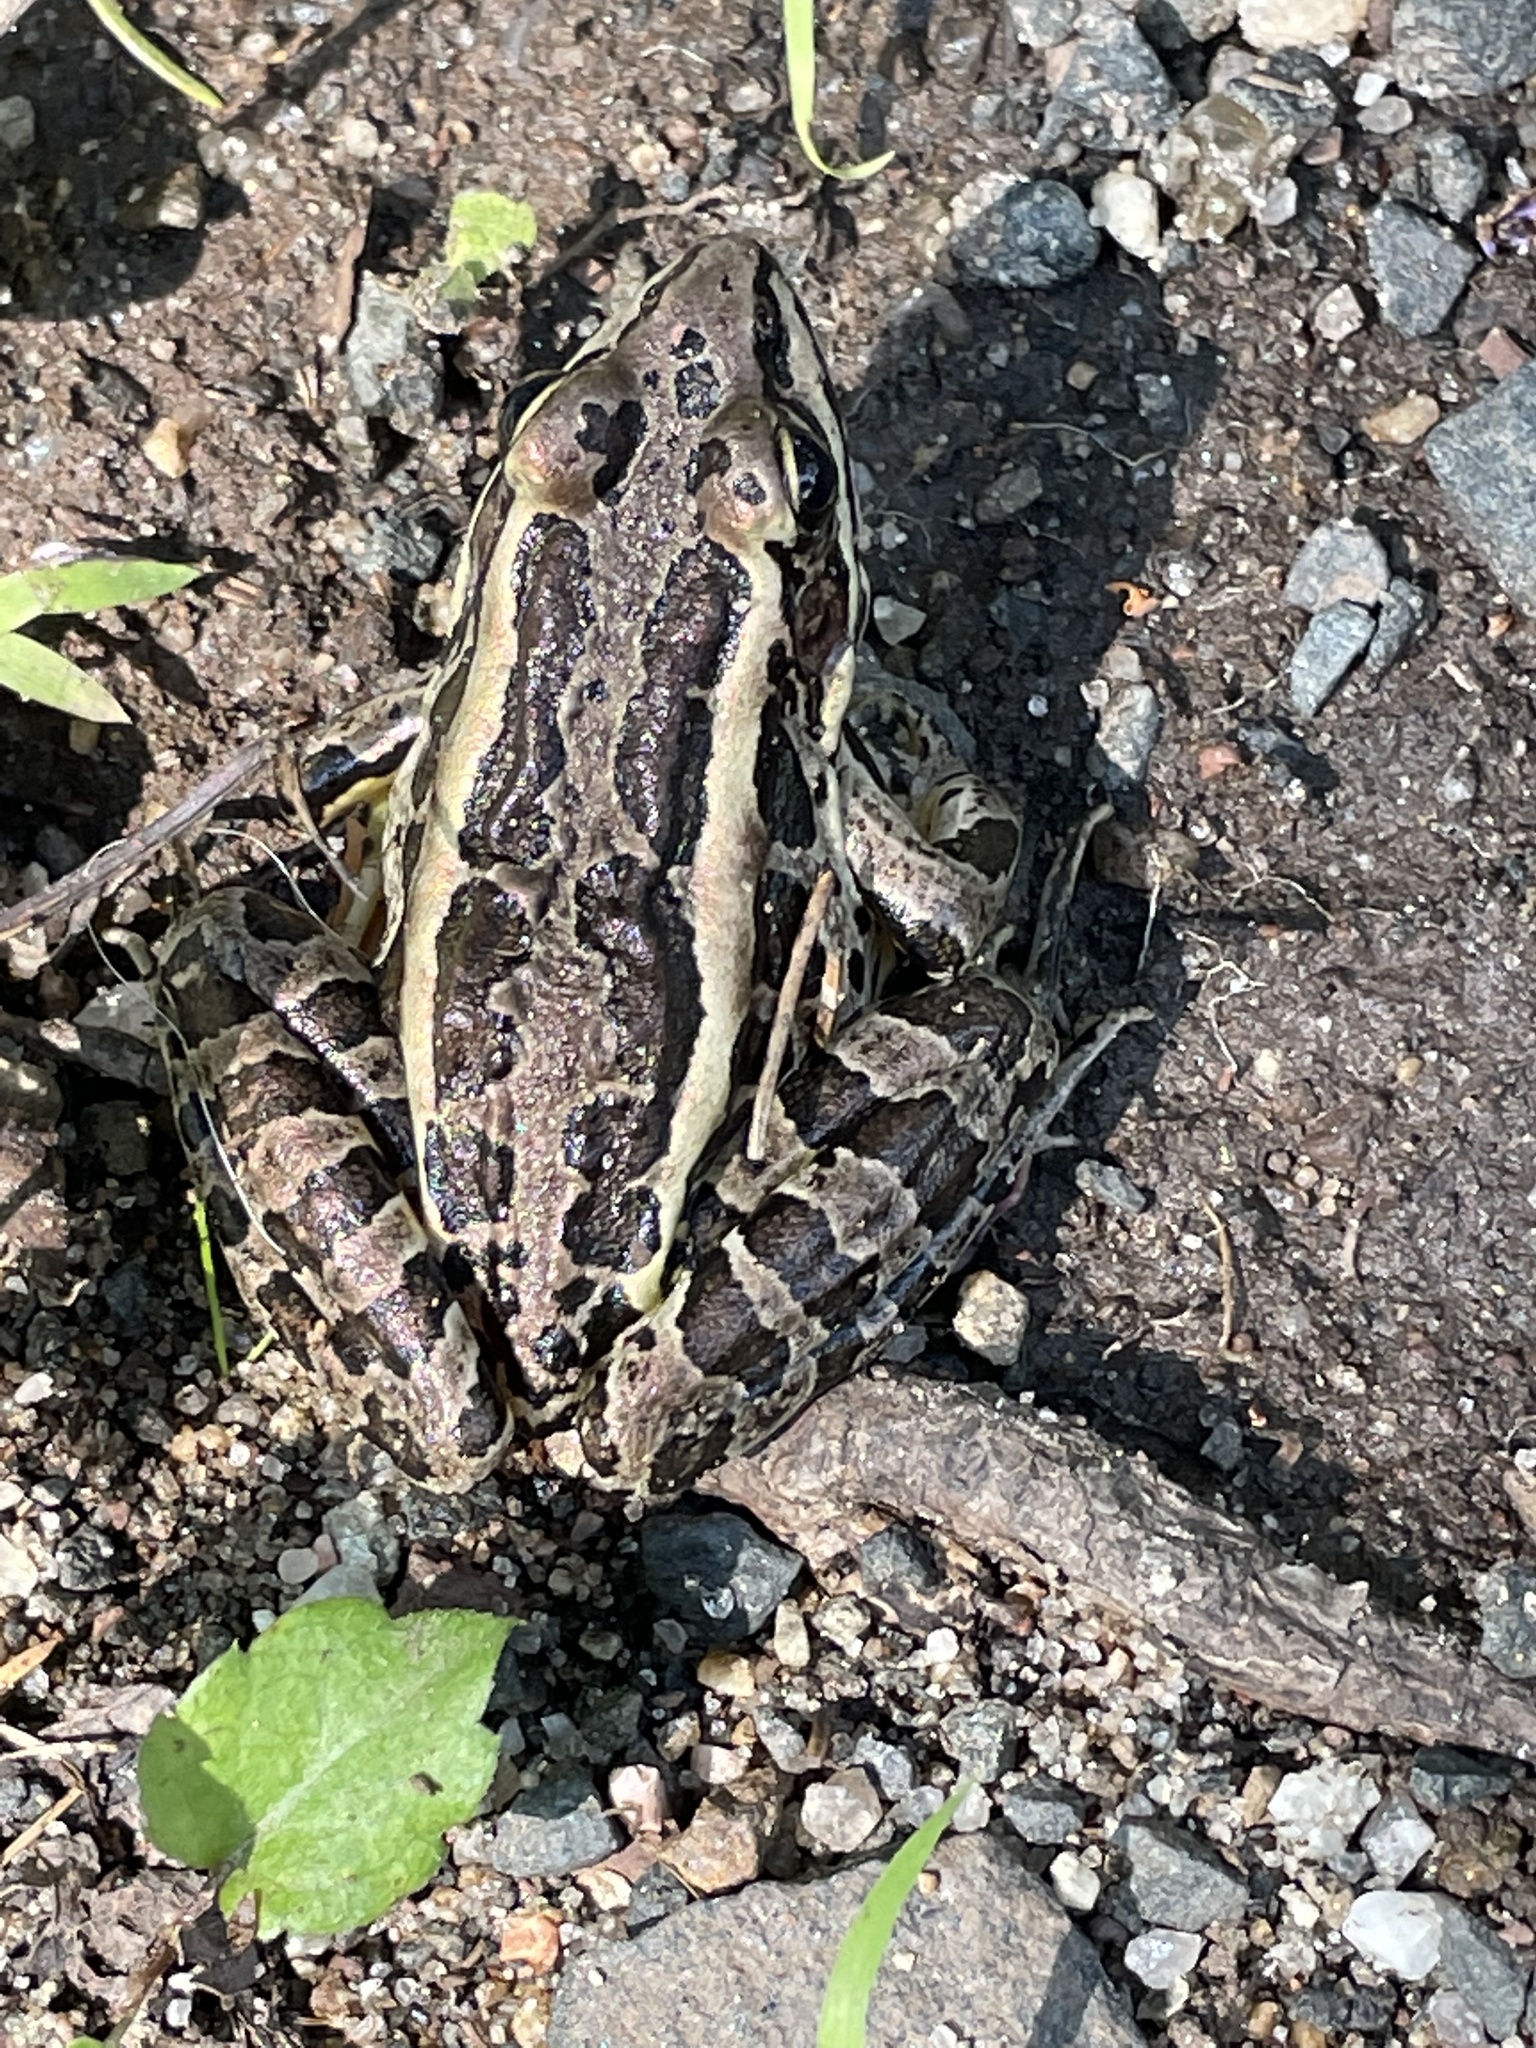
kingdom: Animalia
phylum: Chordata
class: Amphibia
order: Anura
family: Ranidae
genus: Lithobates
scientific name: Lithobates palustris
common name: Pickerel frog
